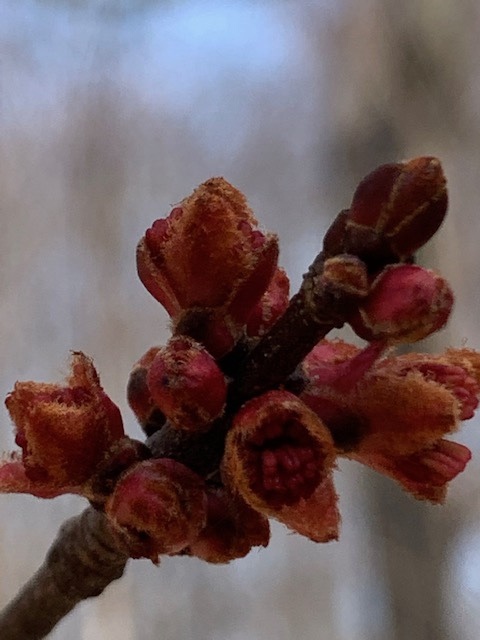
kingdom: Plantae
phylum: Tracheophyta
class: Magnoliopsida
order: Sapindales
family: Sapindaceae
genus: Acer
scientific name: Acer rubrum
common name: Red maple
